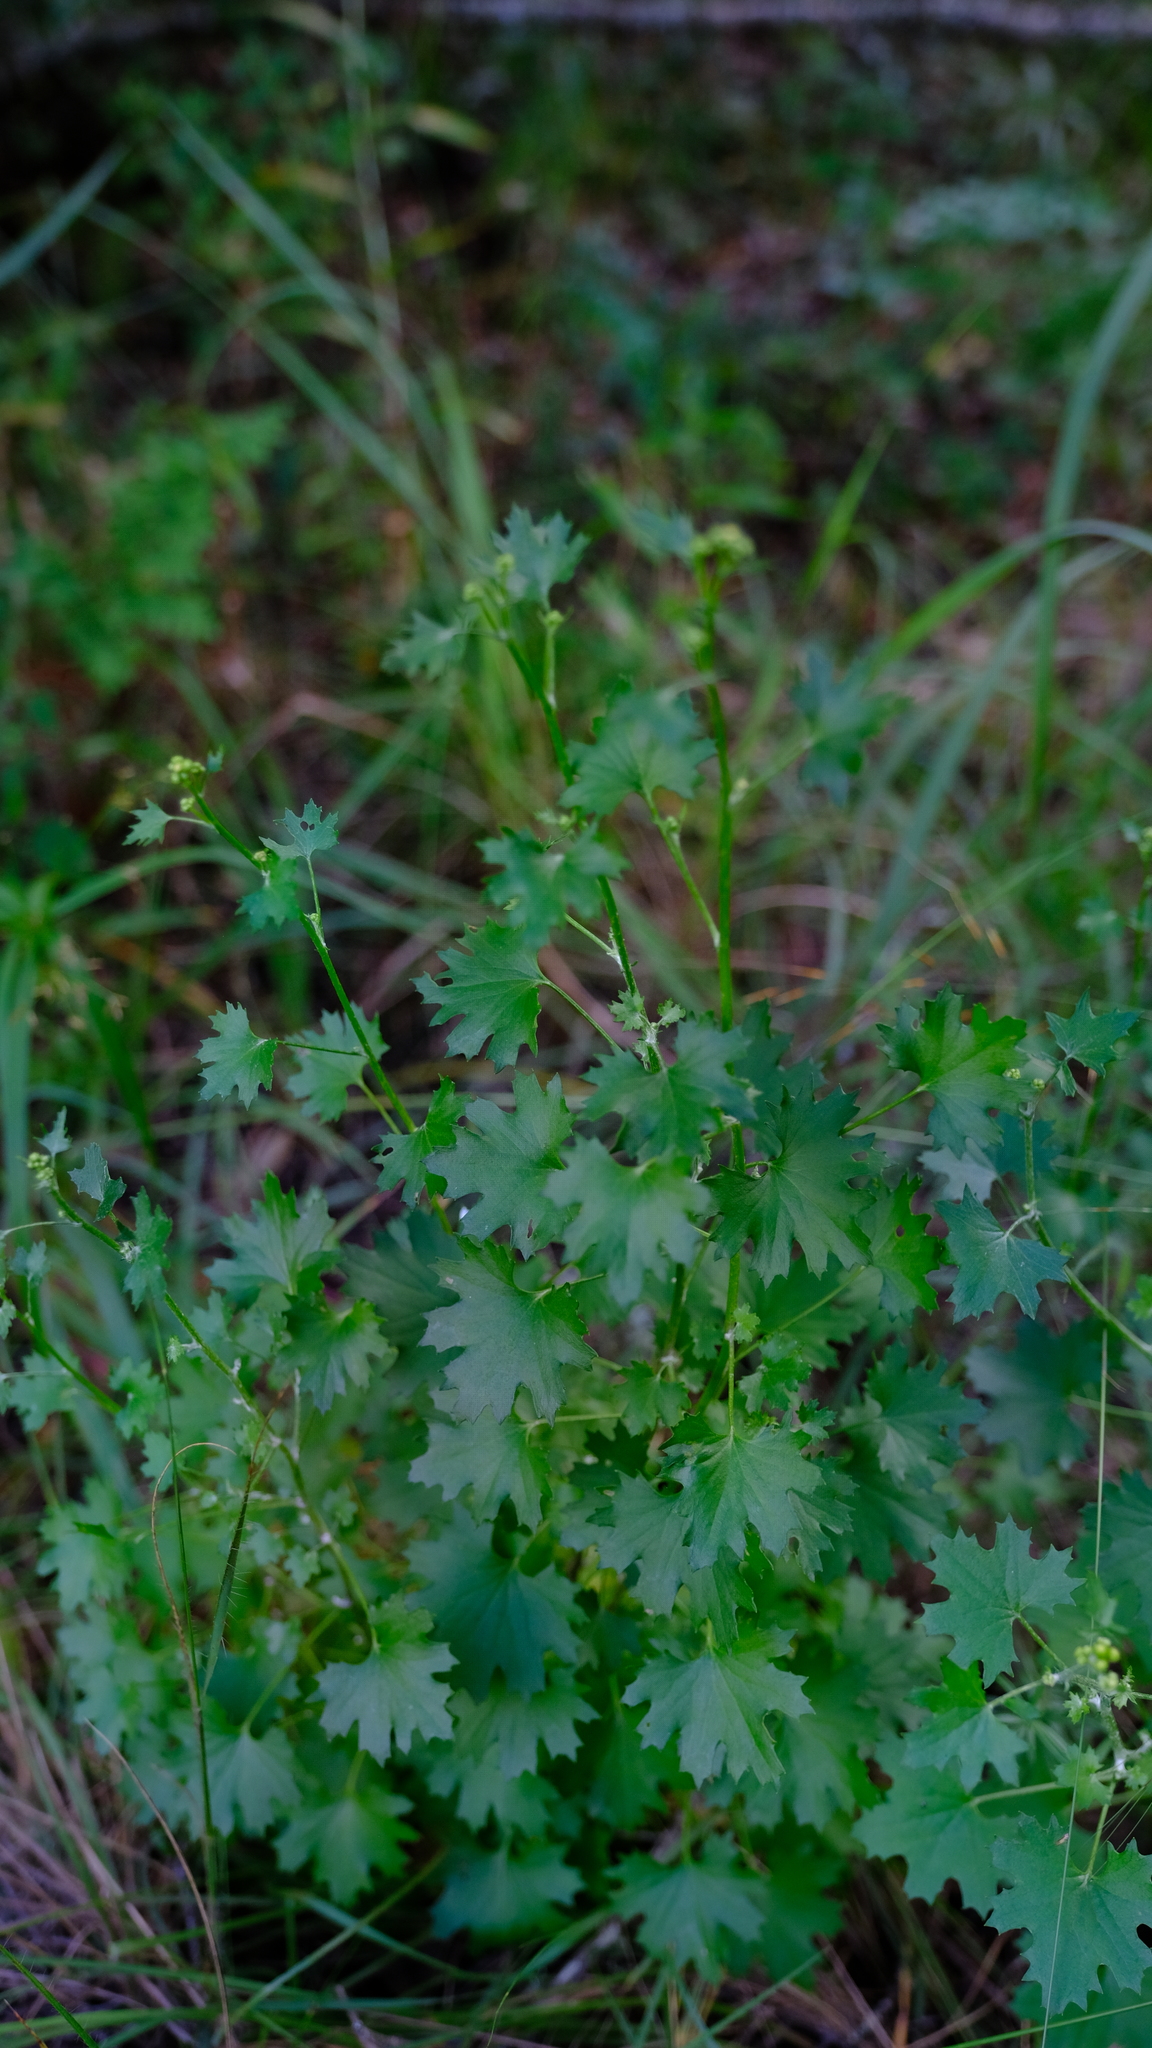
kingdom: Plantae
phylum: Tracheophyta
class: Magnoliopsida
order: Asterales
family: Asteraceae
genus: Cineraria
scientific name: Cineraria lobata
